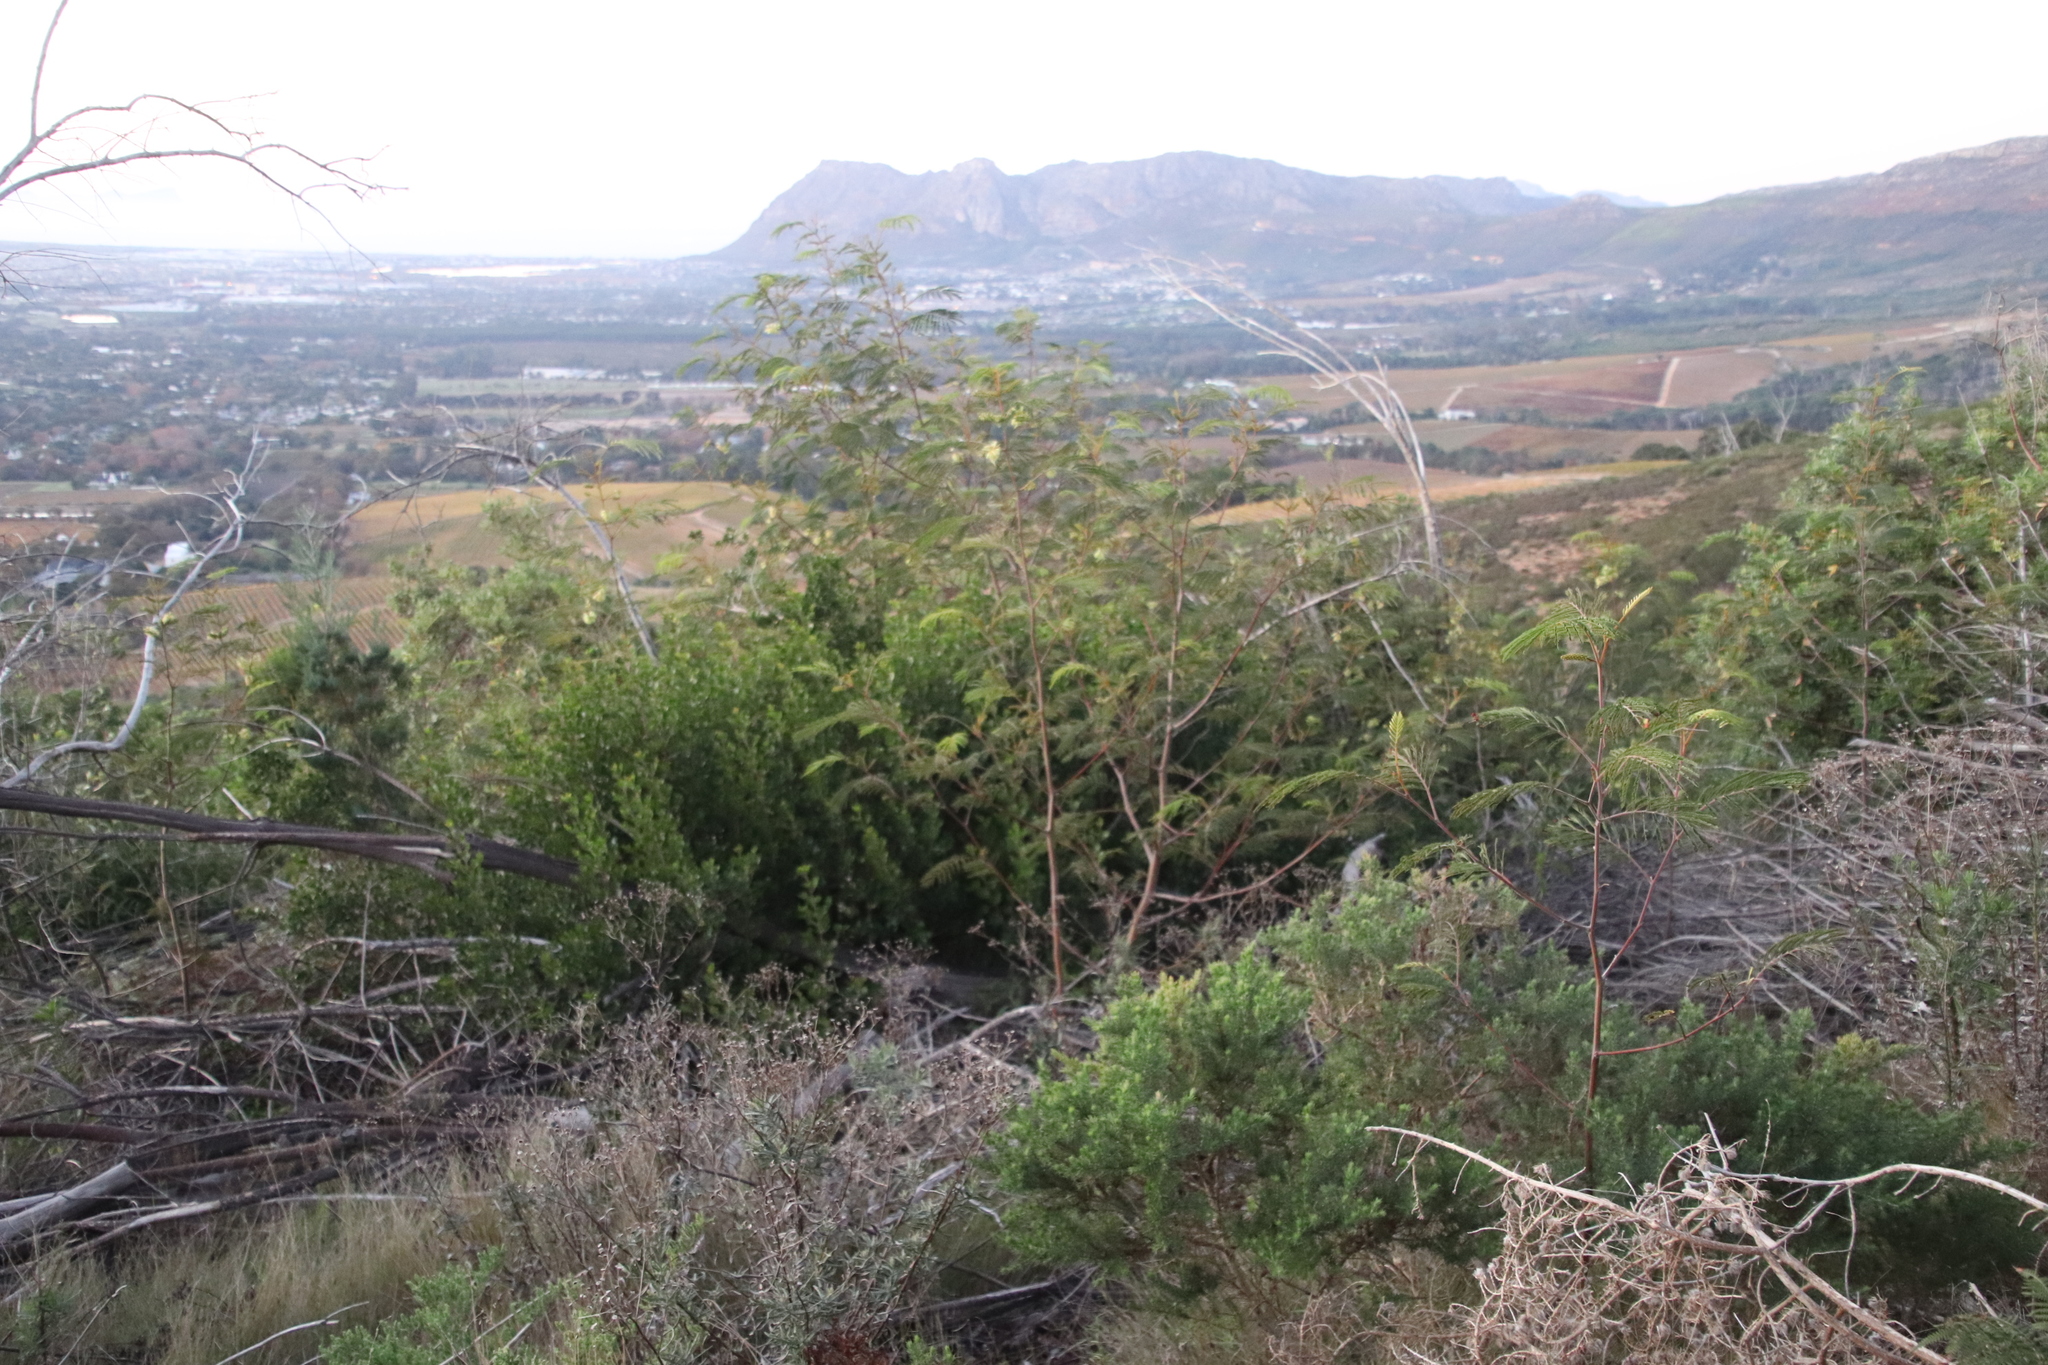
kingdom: Plantae
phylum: Tracheophyta
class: Magnoliopsida
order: Fabales
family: Fabaceae
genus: Paraserianthes
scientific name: Paraserianthes lophantha
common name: Plume albizia
